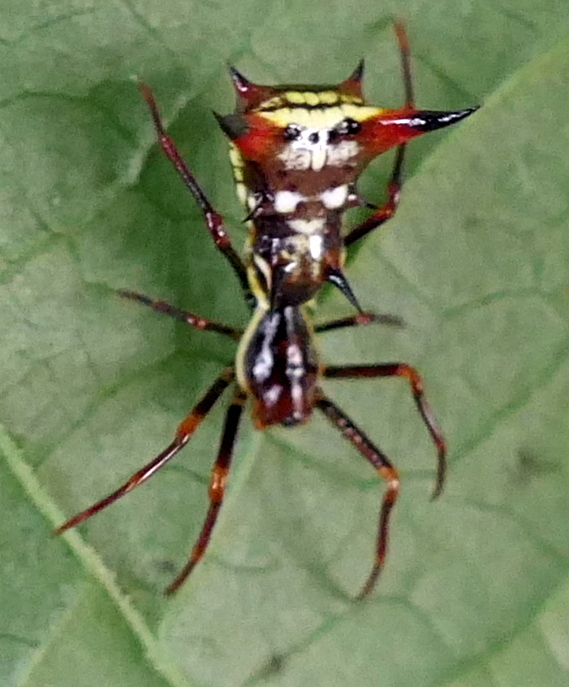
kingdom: Animalia
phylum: Arthropoda
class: Arachnida
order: Araneae
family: Araneidae
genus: Micrathena
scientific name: Micrathena schreibersi
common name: Orb weavers
